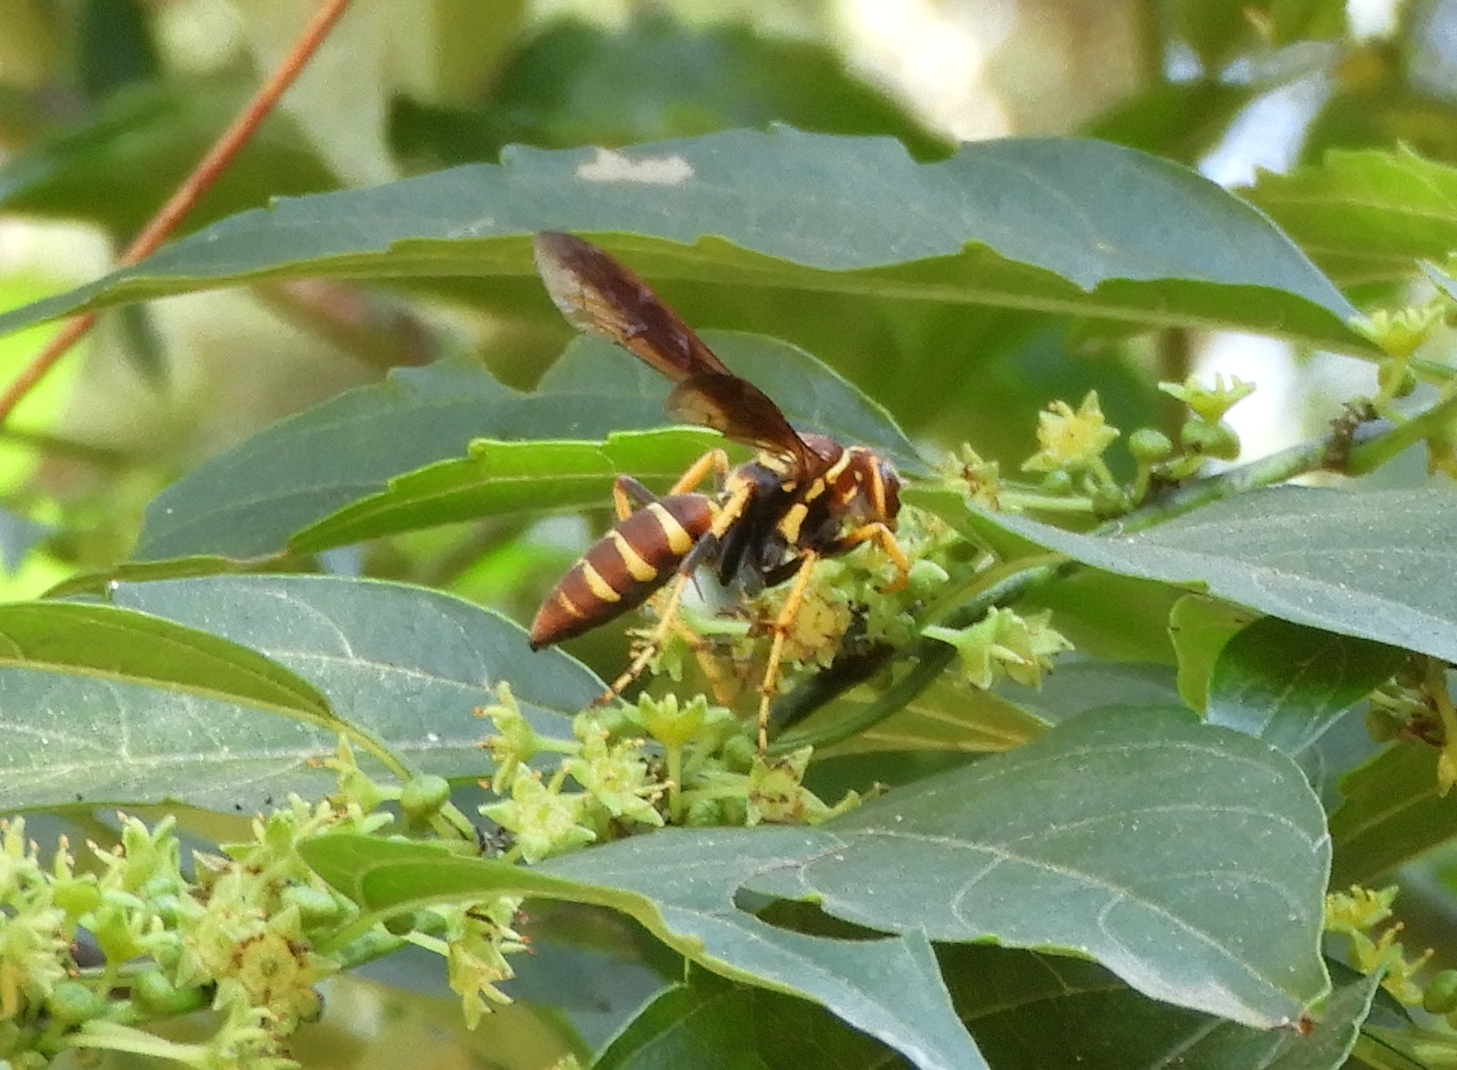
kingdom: Animalia
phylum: Arthropoda
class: Insecta
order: Hymenoptera
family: Pompilidae
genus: Poecilopompilus
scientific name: Poecilopompilus
